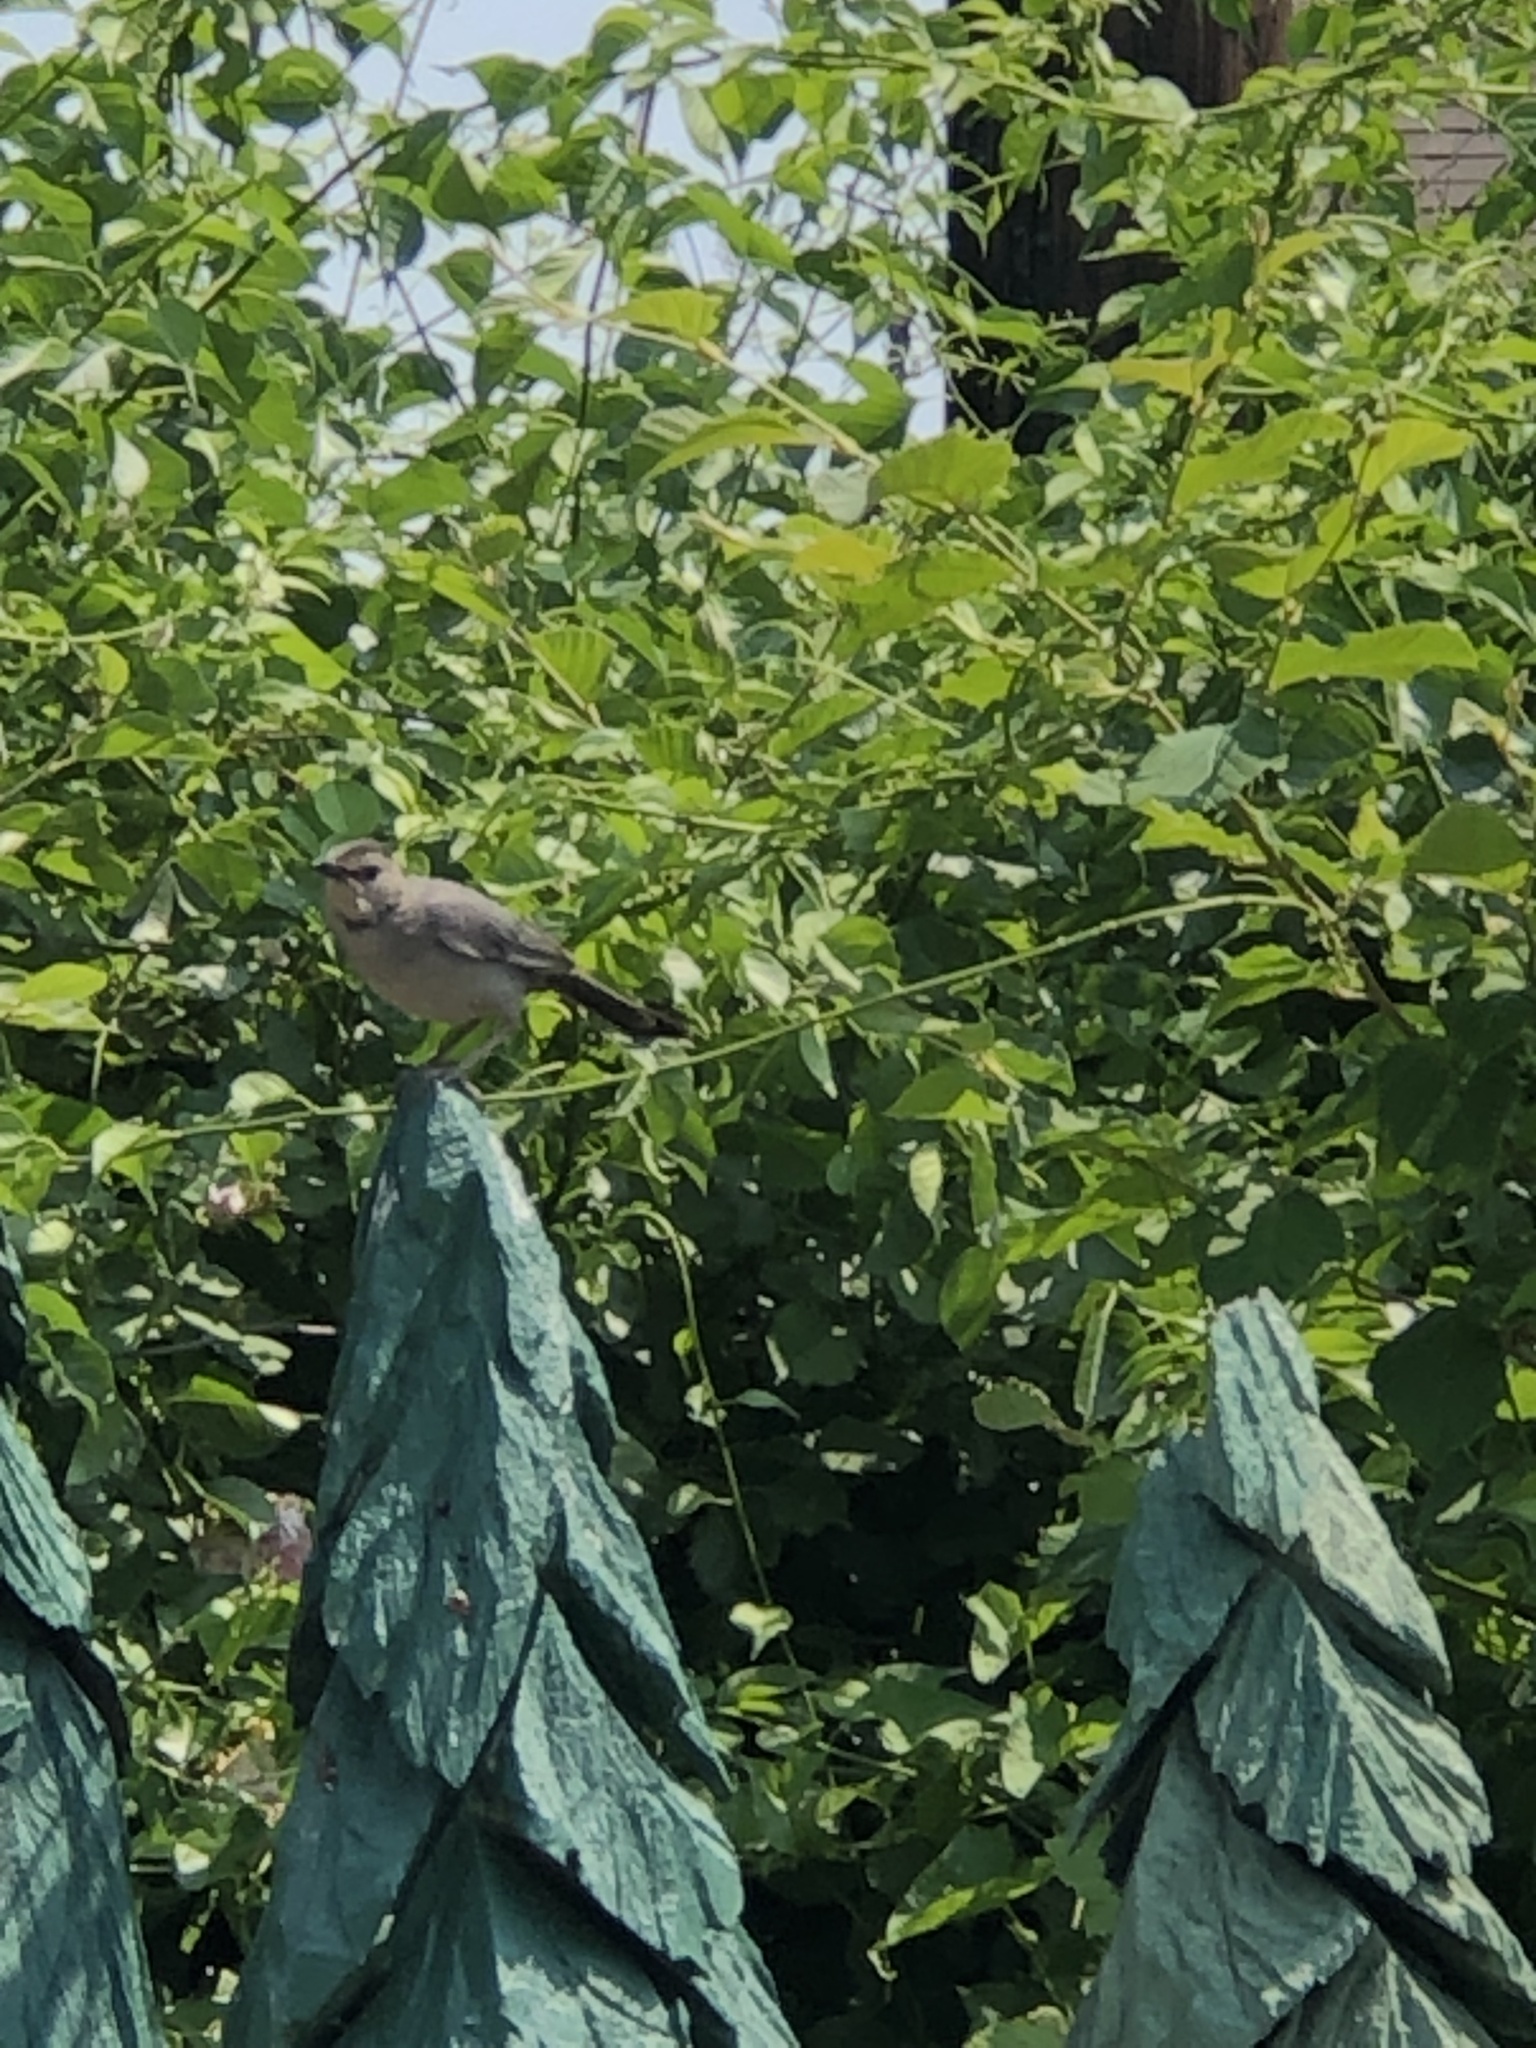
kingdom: Animalia
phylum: Chordata
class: Aves
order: Passeriformes
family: Mimidae
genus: Dumetella
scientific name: Dumetella carolinensis
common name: Gray catbird
